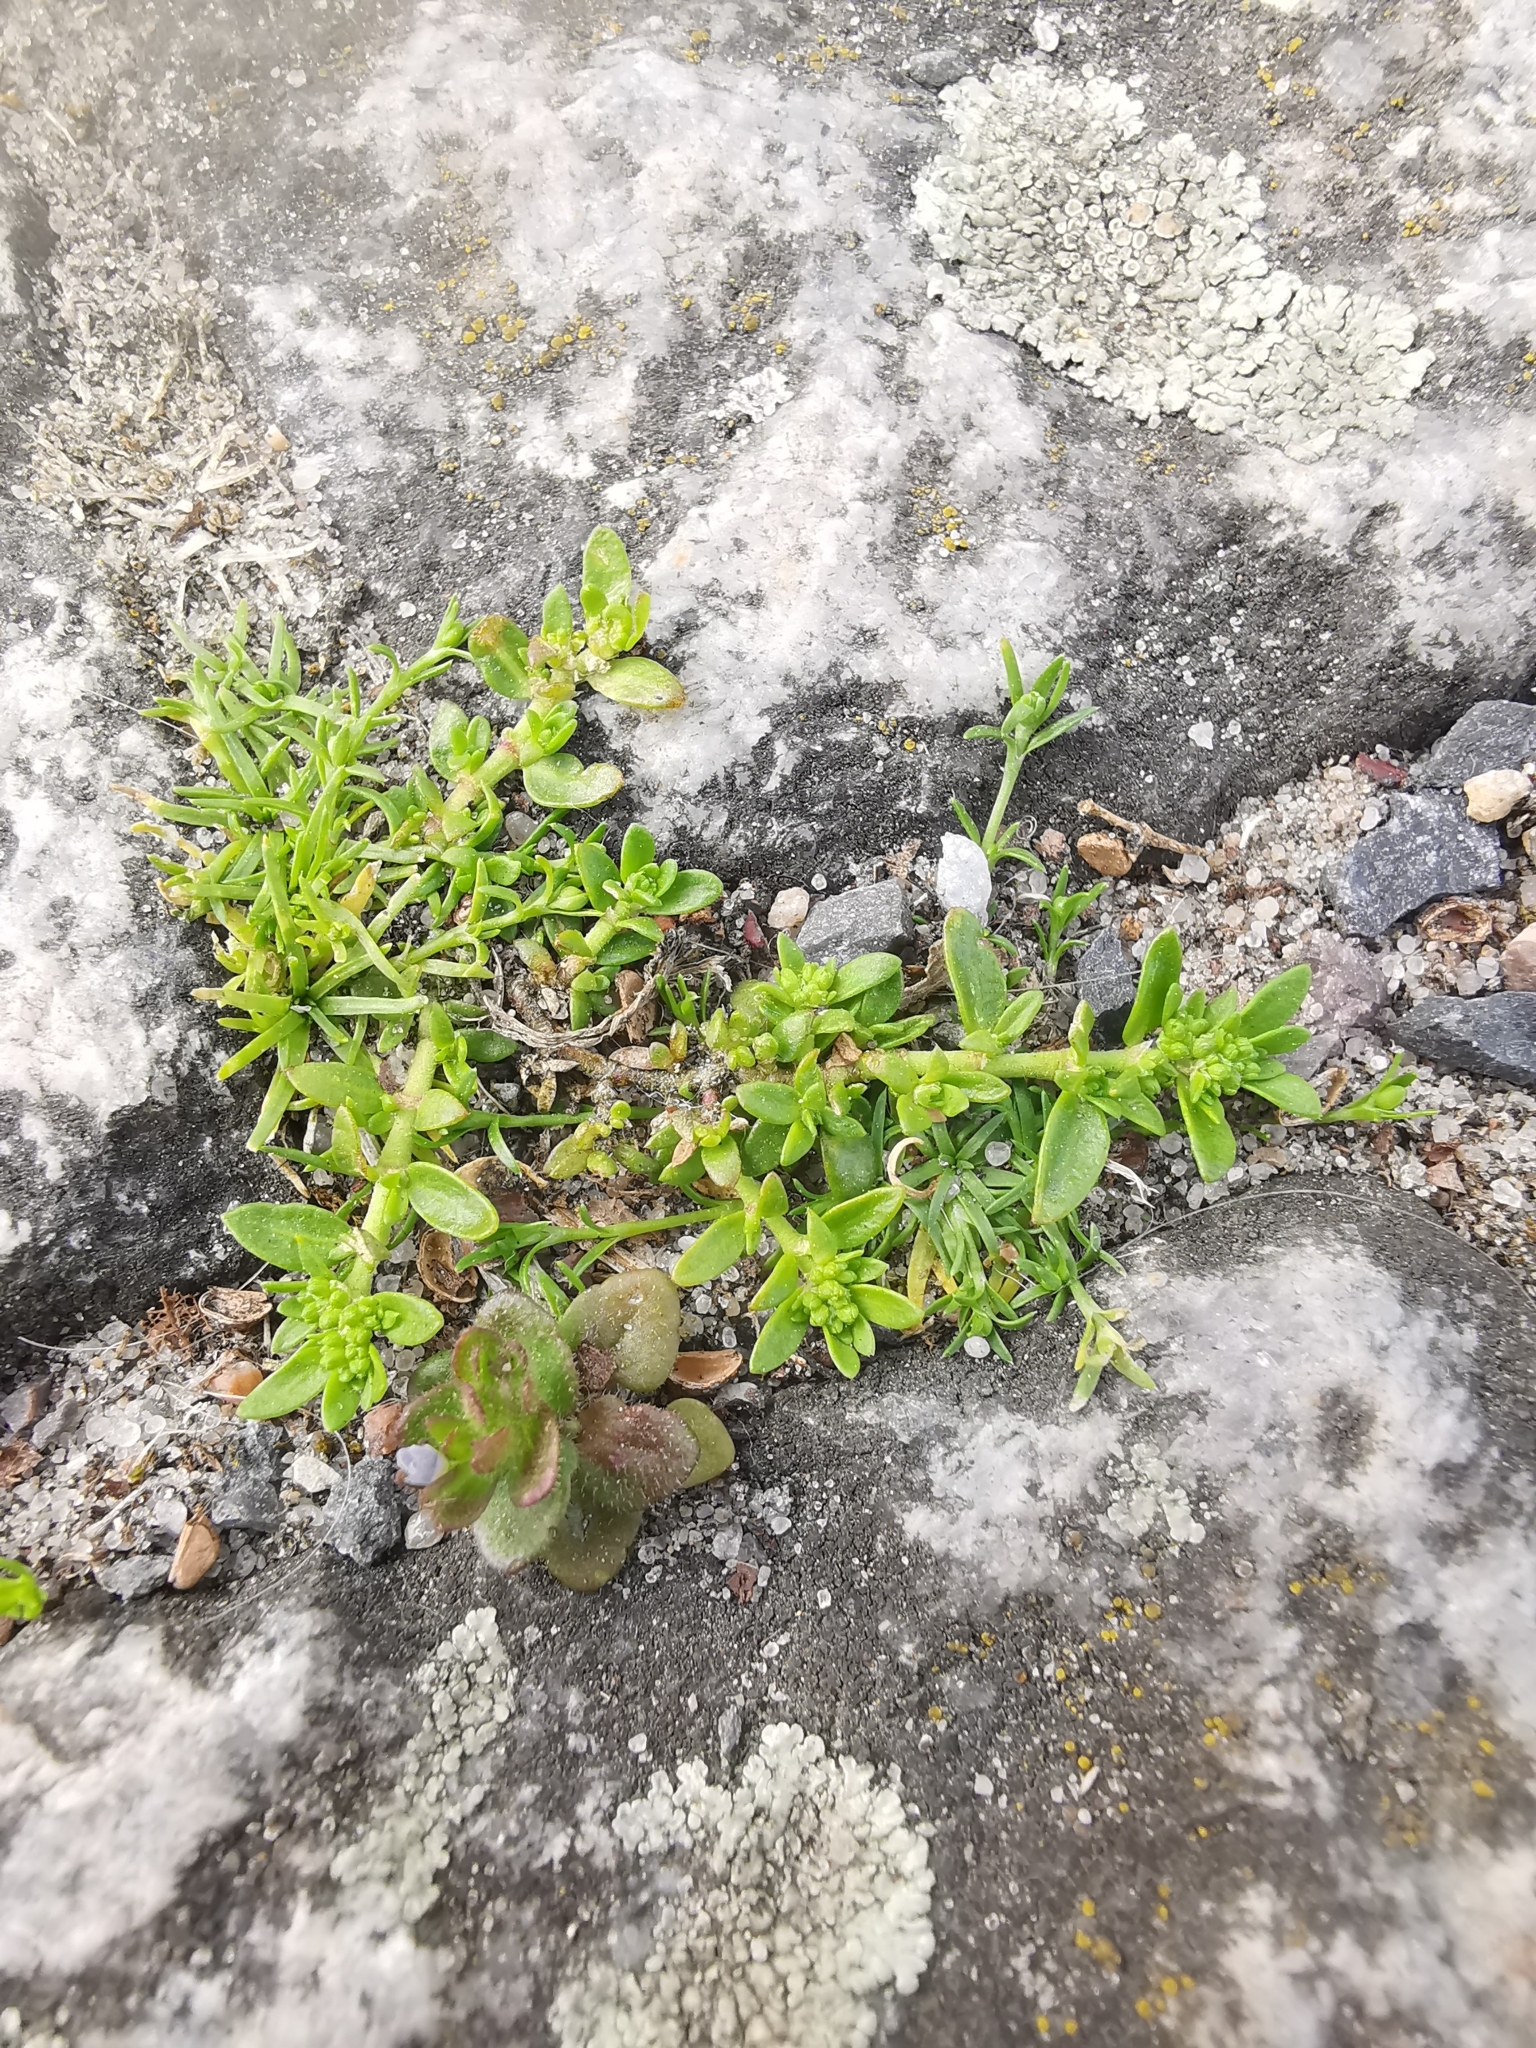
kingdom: Plantae
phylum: Tracheophyta
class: Magnoliopsida
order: Caryophyllales
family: Caryophyllaceae
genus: Herniaria
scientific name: Herniaria glabra
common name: Smooth rupturewort
